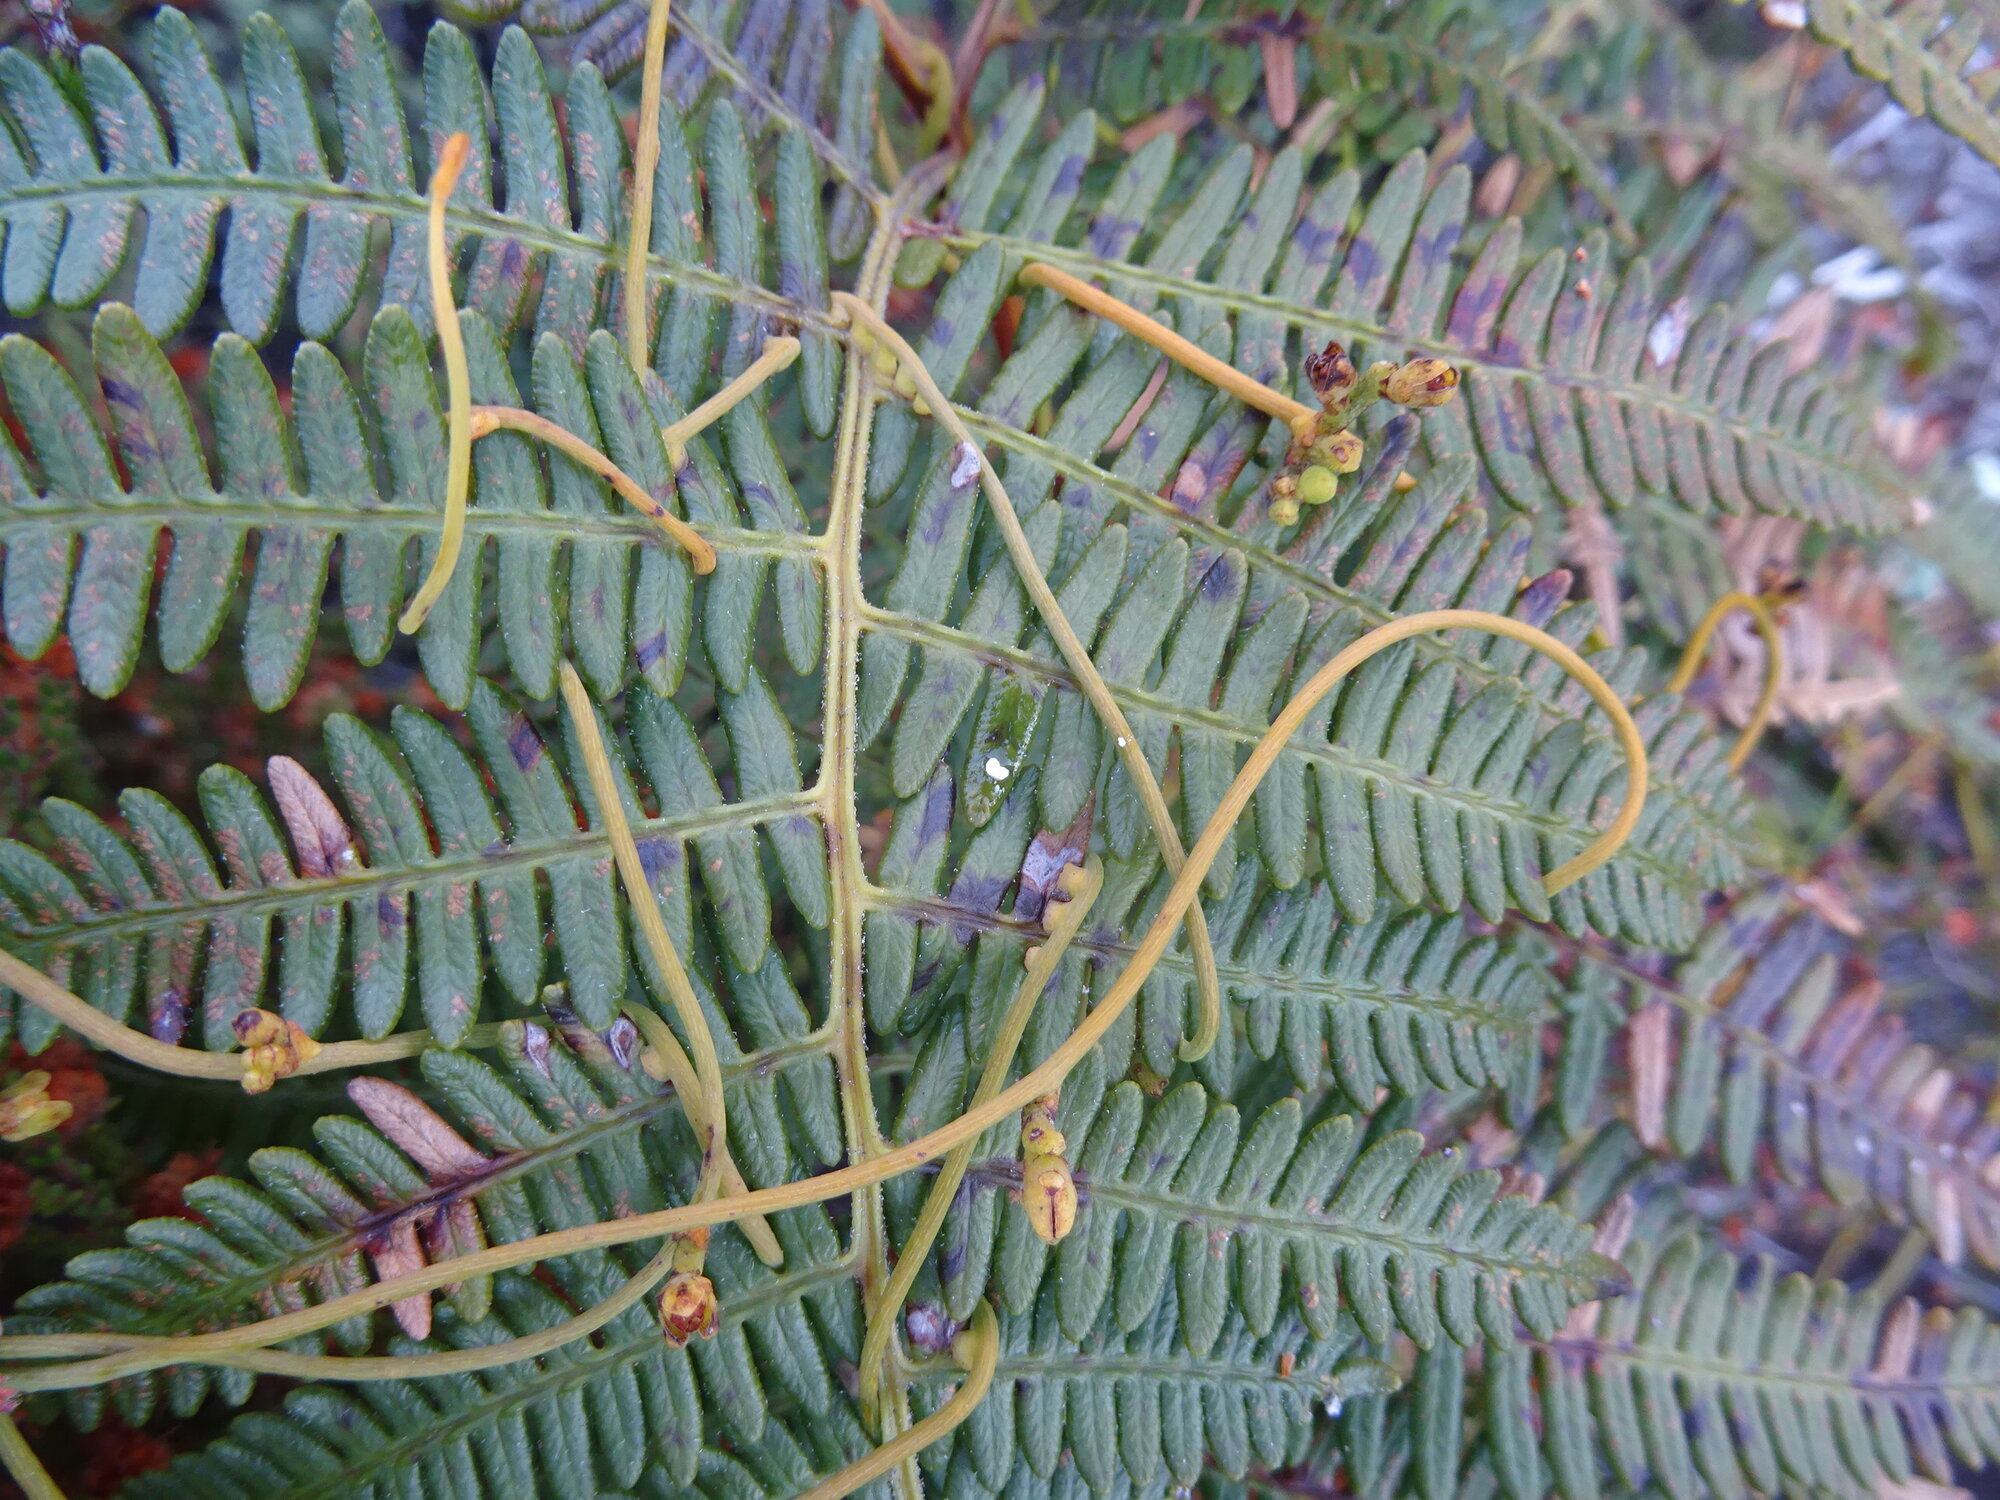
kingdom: Plantae
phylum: Tracheophyta
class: Magnoliopsida
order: Laurales
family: Lauraceae
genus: Cassytha
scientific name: Cassytha ciliolata
